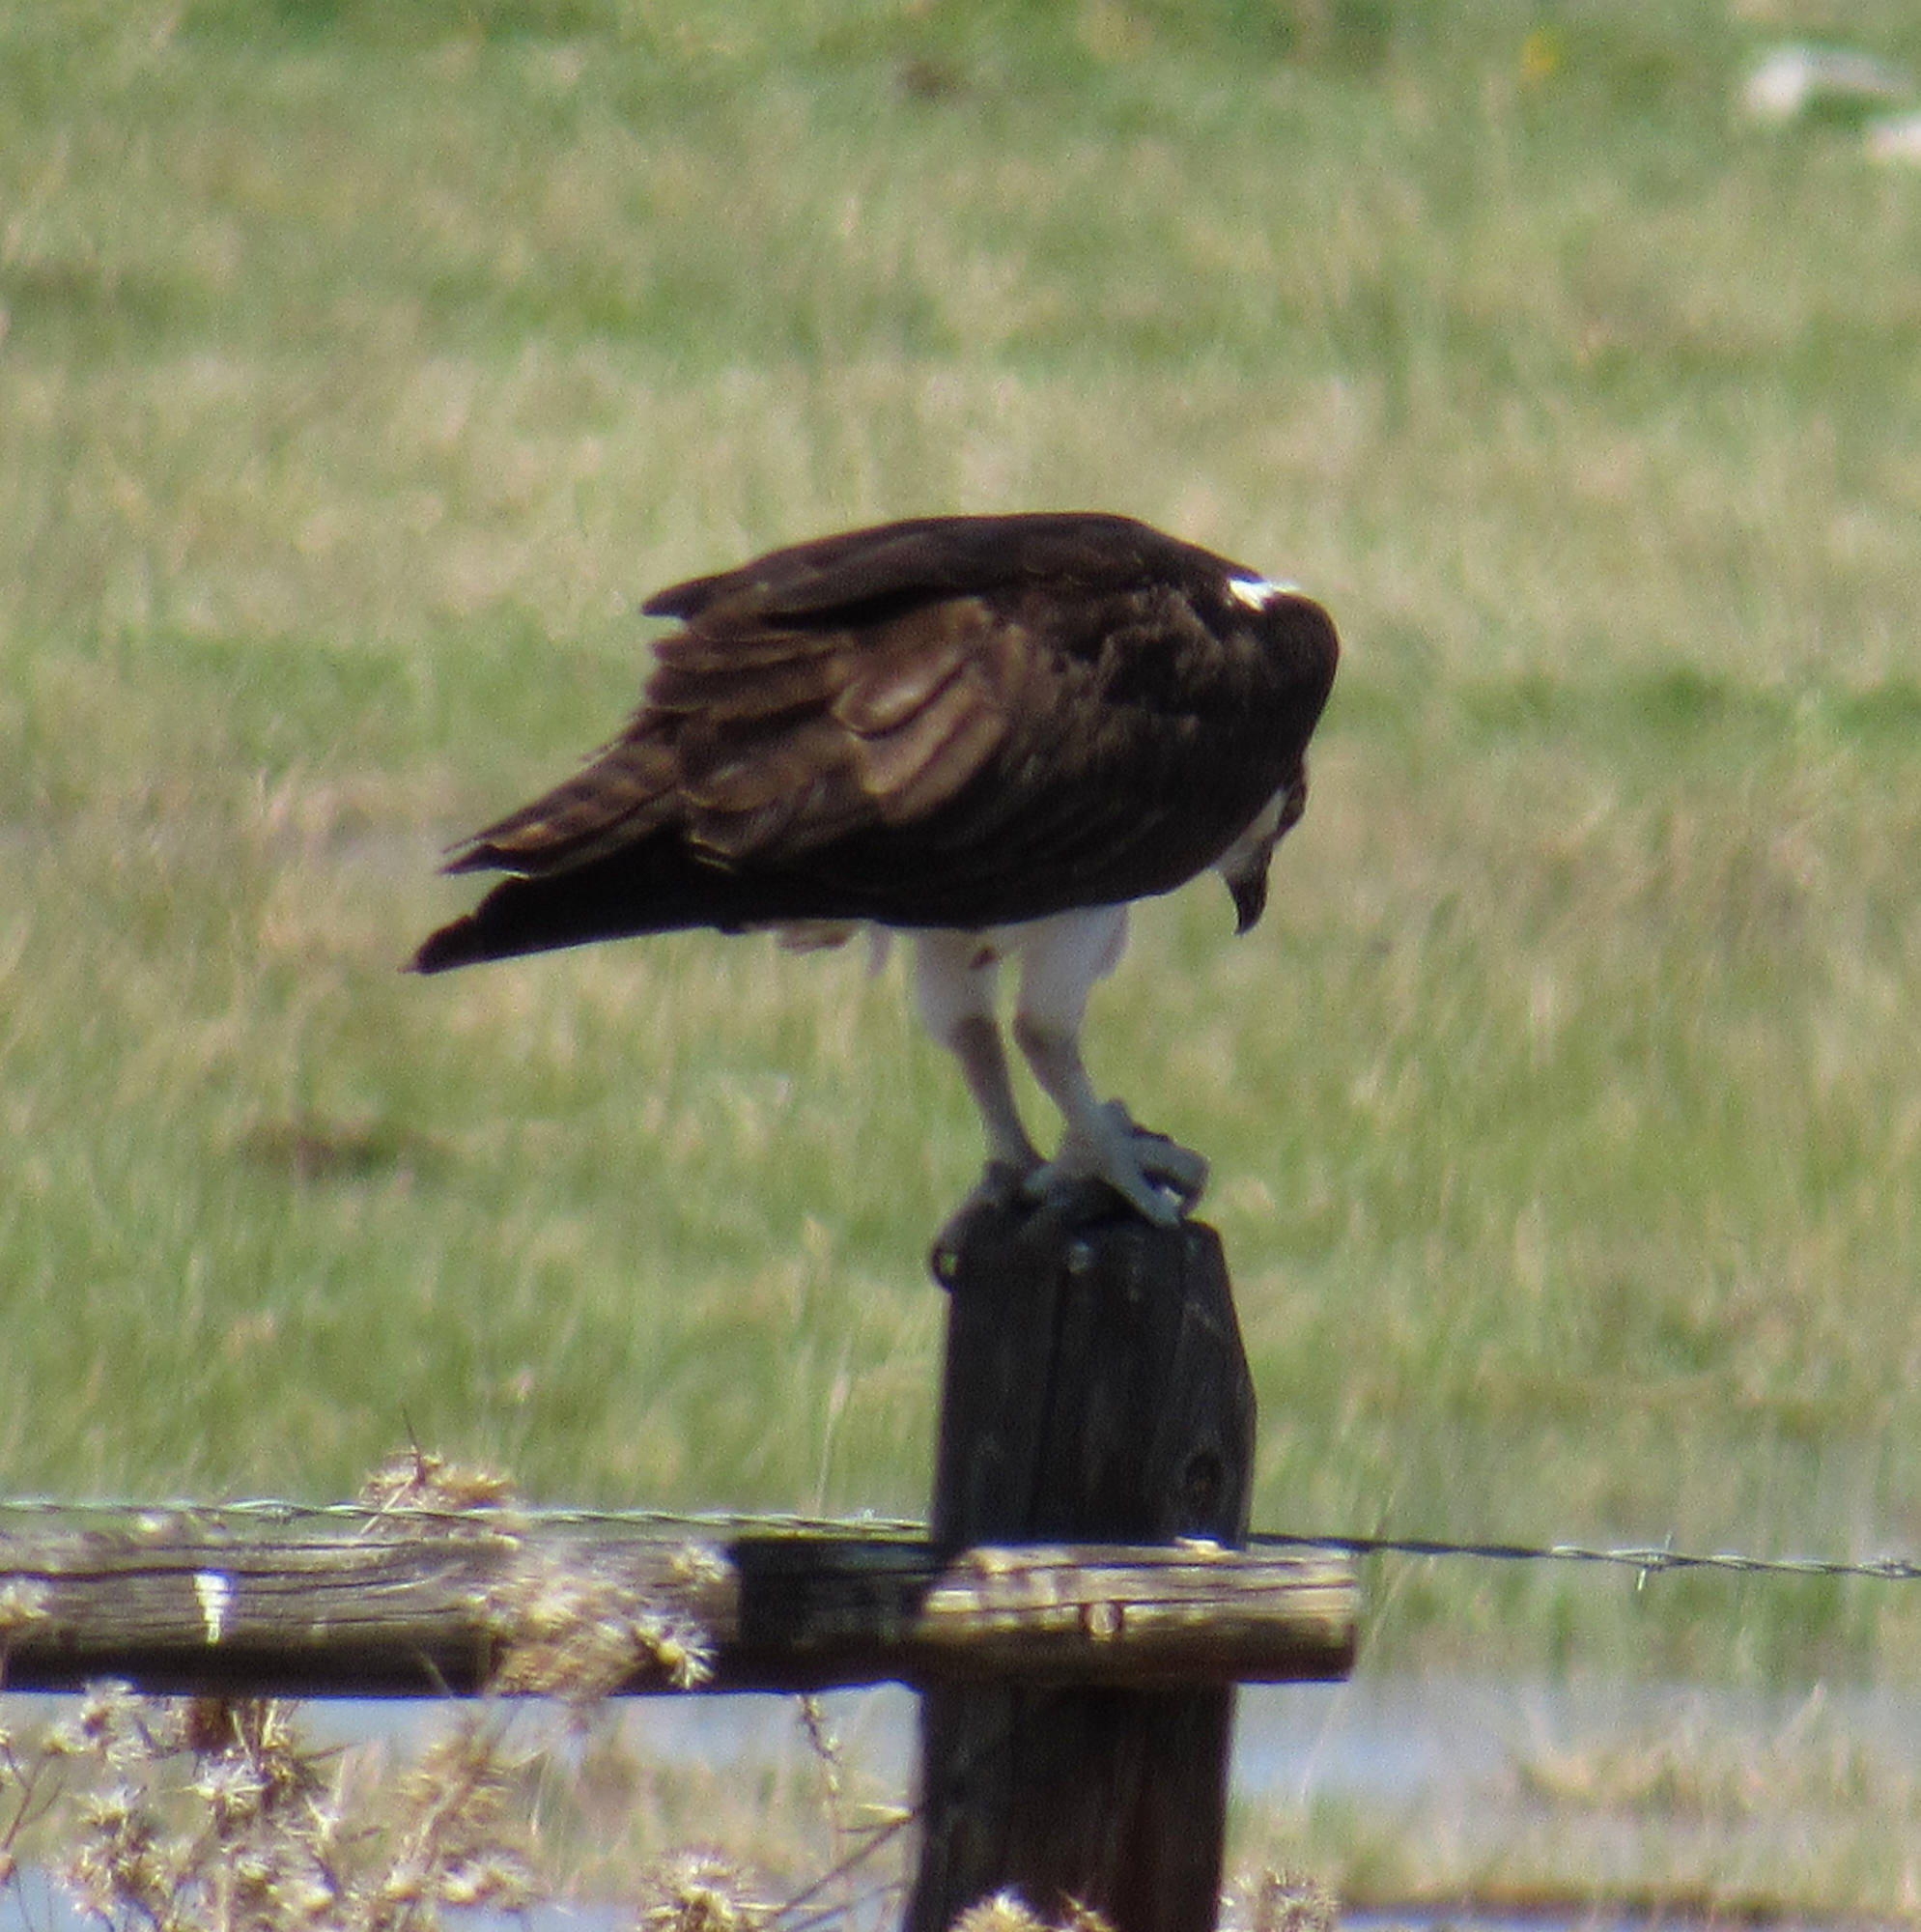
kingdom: Animalia
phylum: Chordata
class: Aves
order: Accipitriformes
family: Pandionidae
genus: Pandion
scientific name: Pandion haliaetus
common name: Osprey
